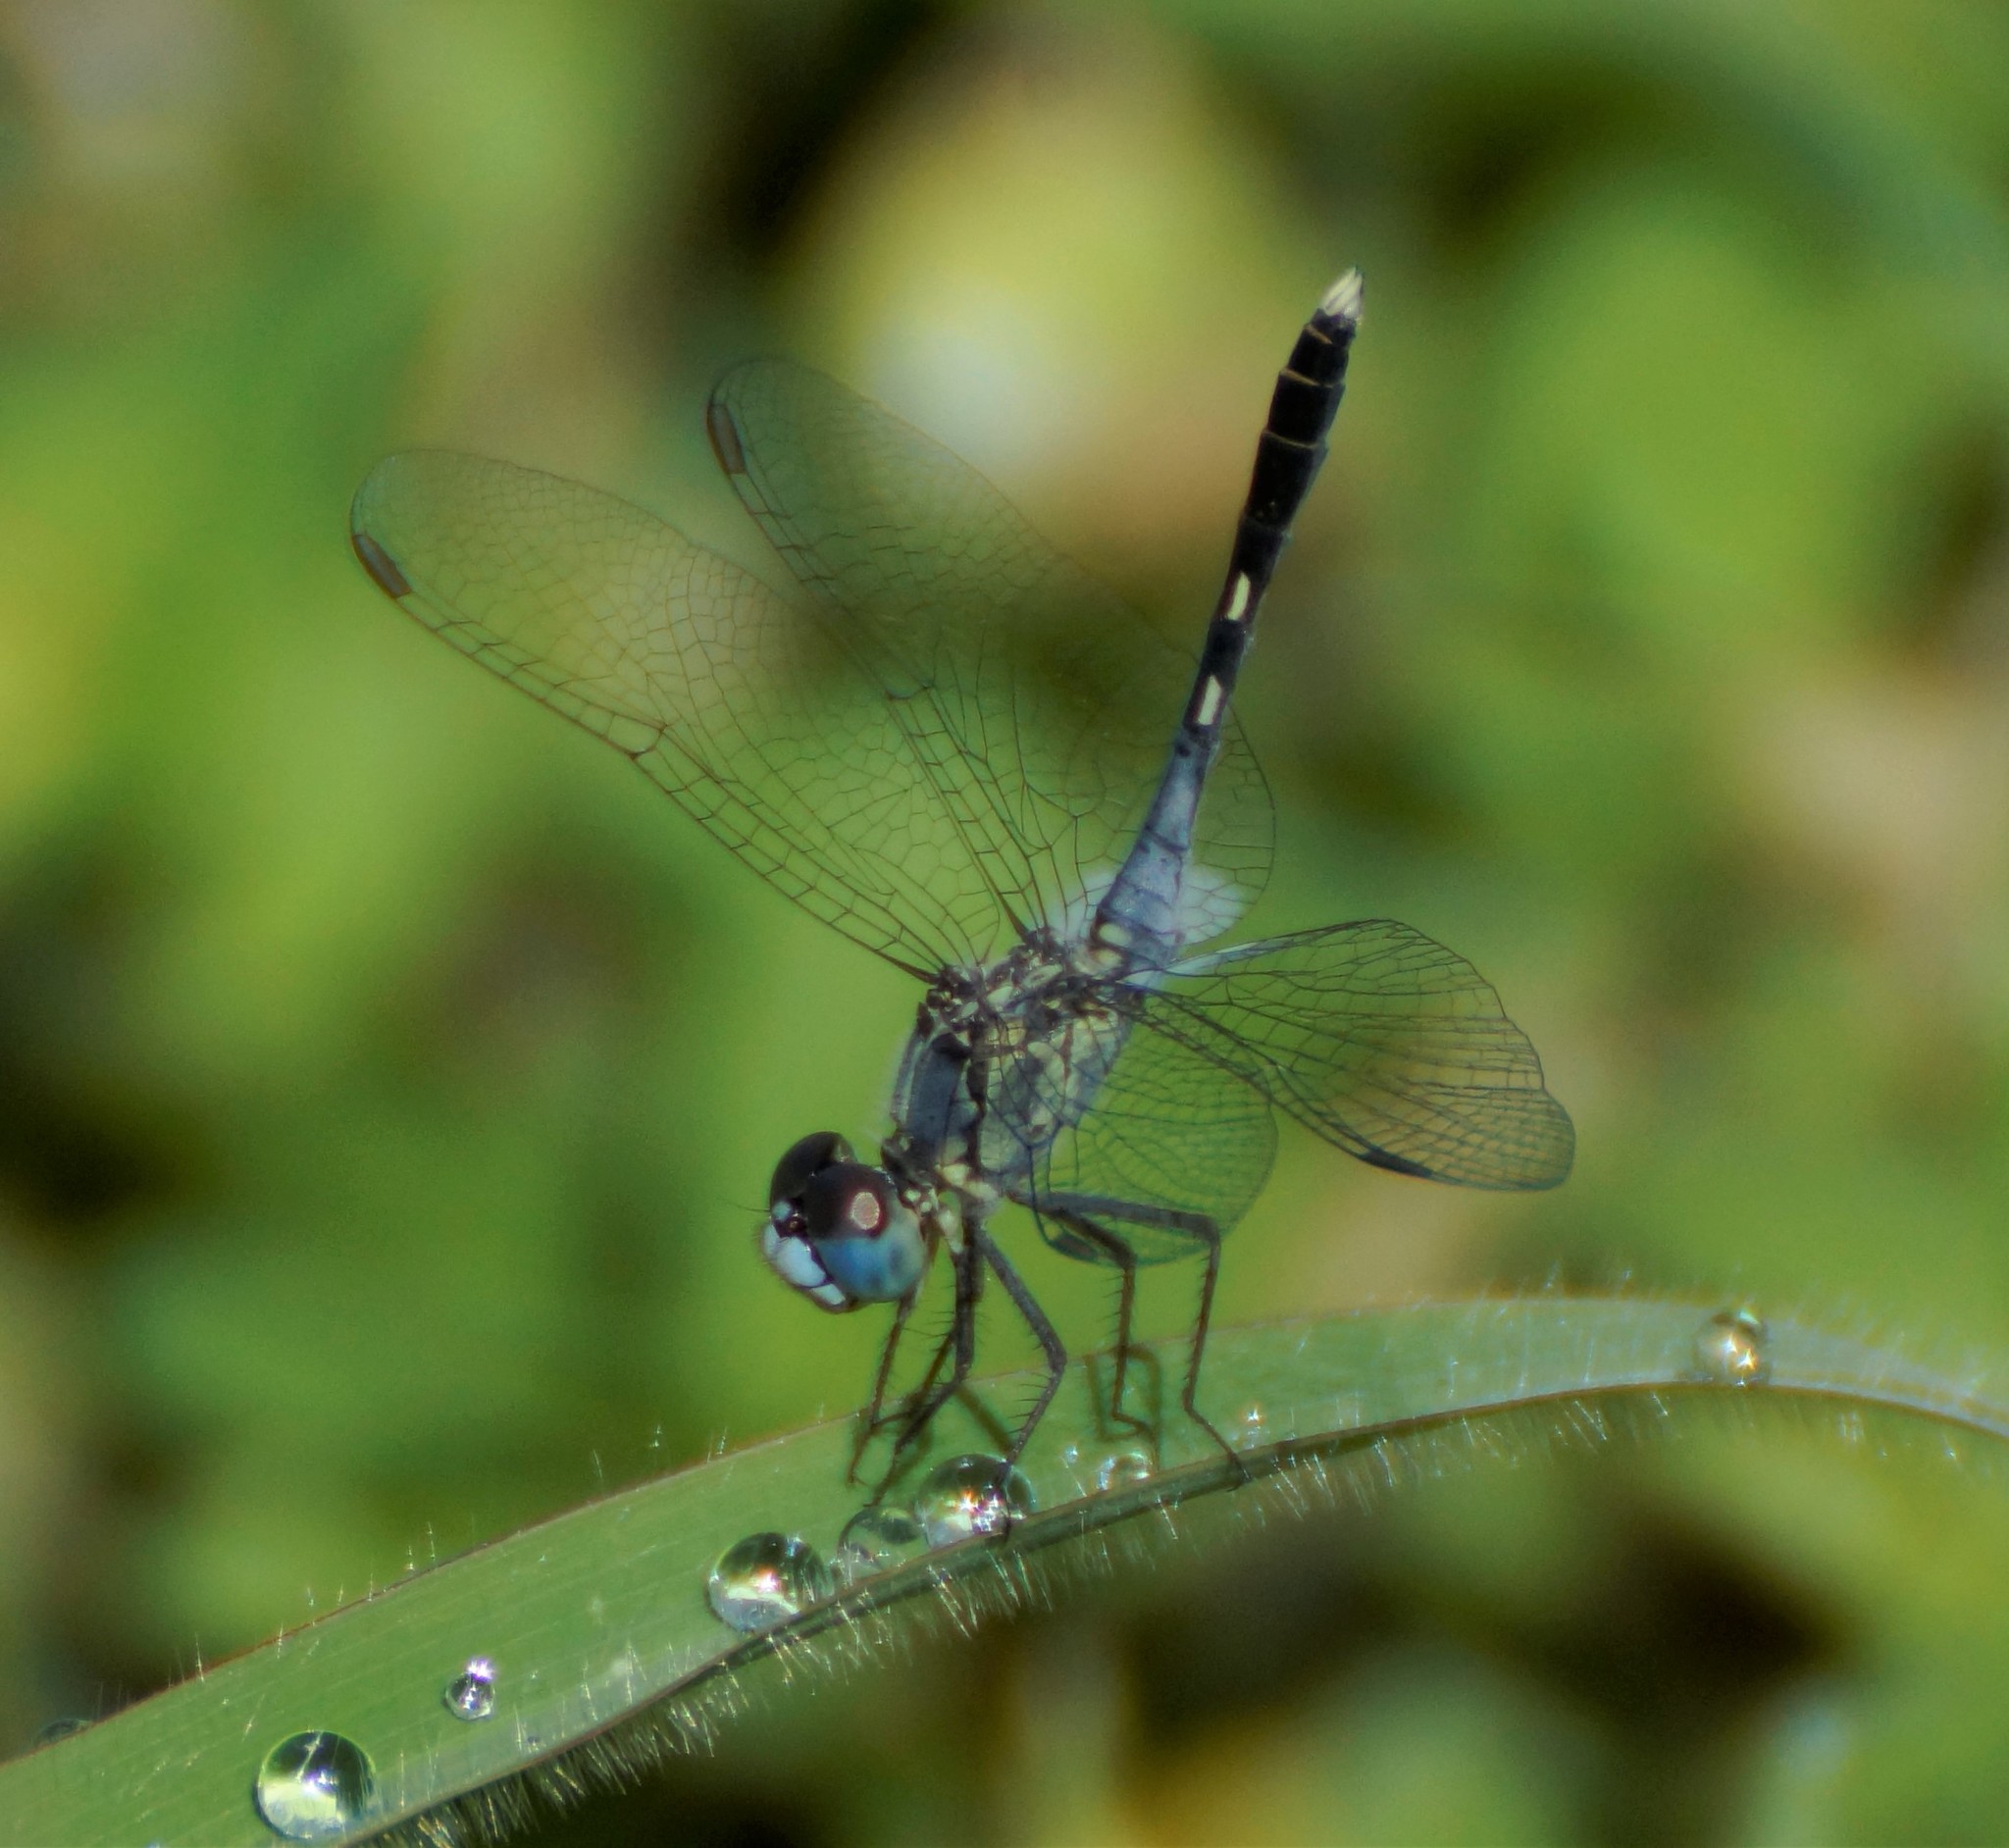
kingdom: Animalia
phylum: Arthropoda
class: Insecta
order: Odonata
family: Libellulidae
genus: Diplacodes
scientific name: Diplacodes trivialis
